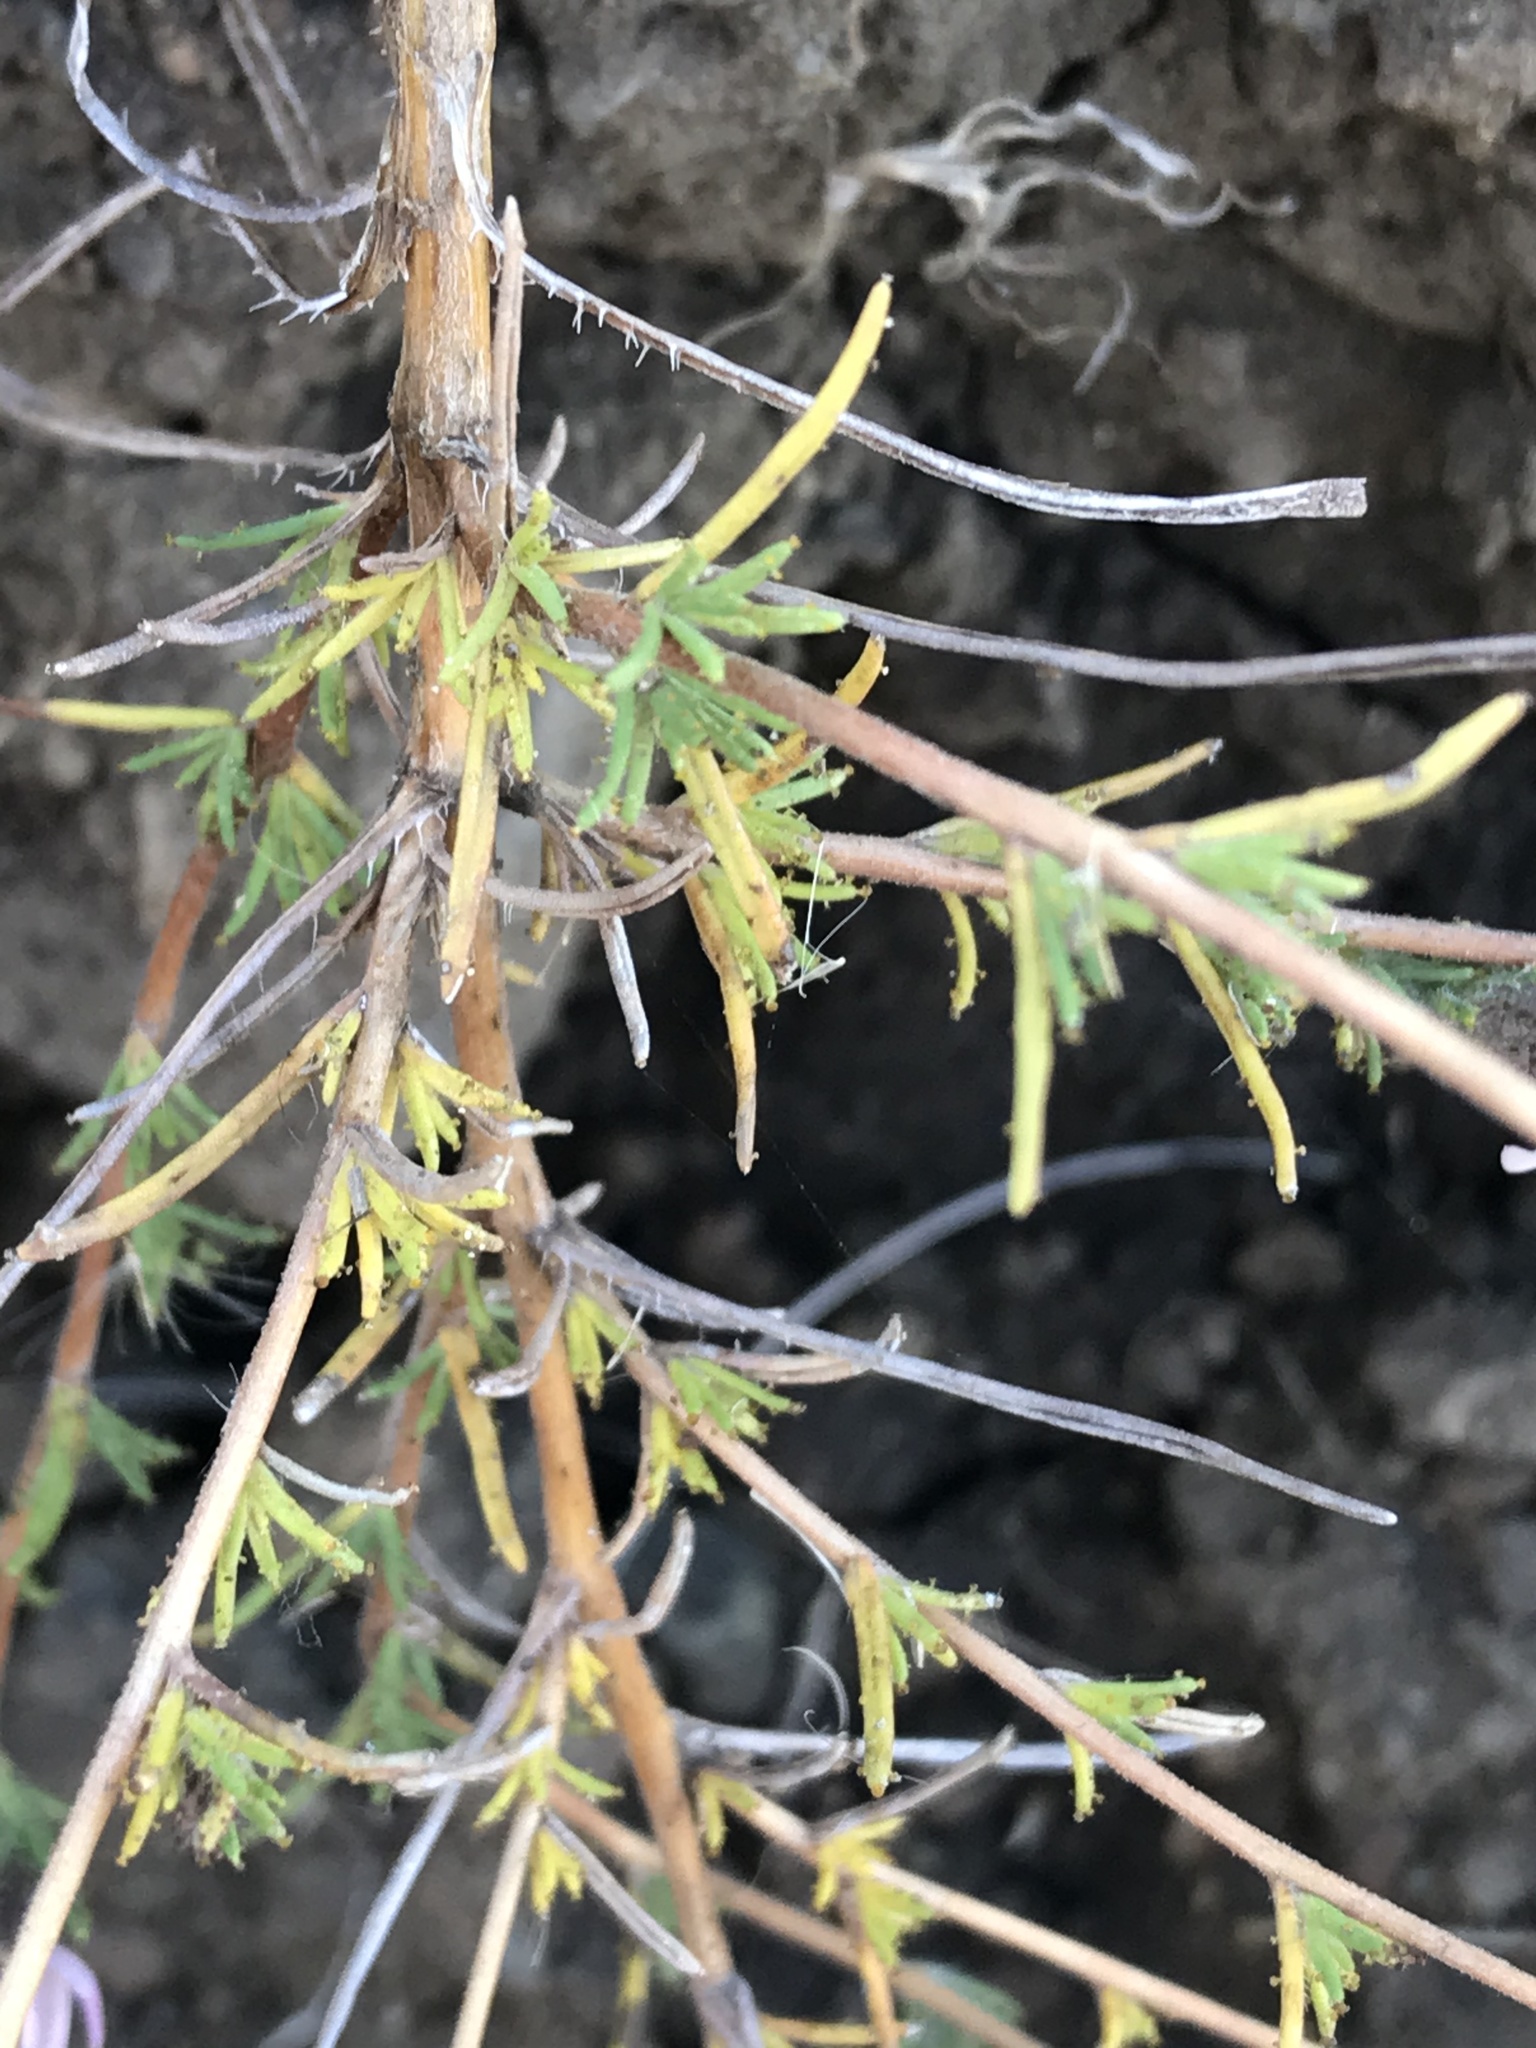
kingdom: Plantae
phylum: Tracheophyta
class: Magnoliopsida
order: Asterales
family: Asteraceae
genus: Calycadenia
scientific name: Calycadenia multiglandulosa
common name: Sticky calycadenia
